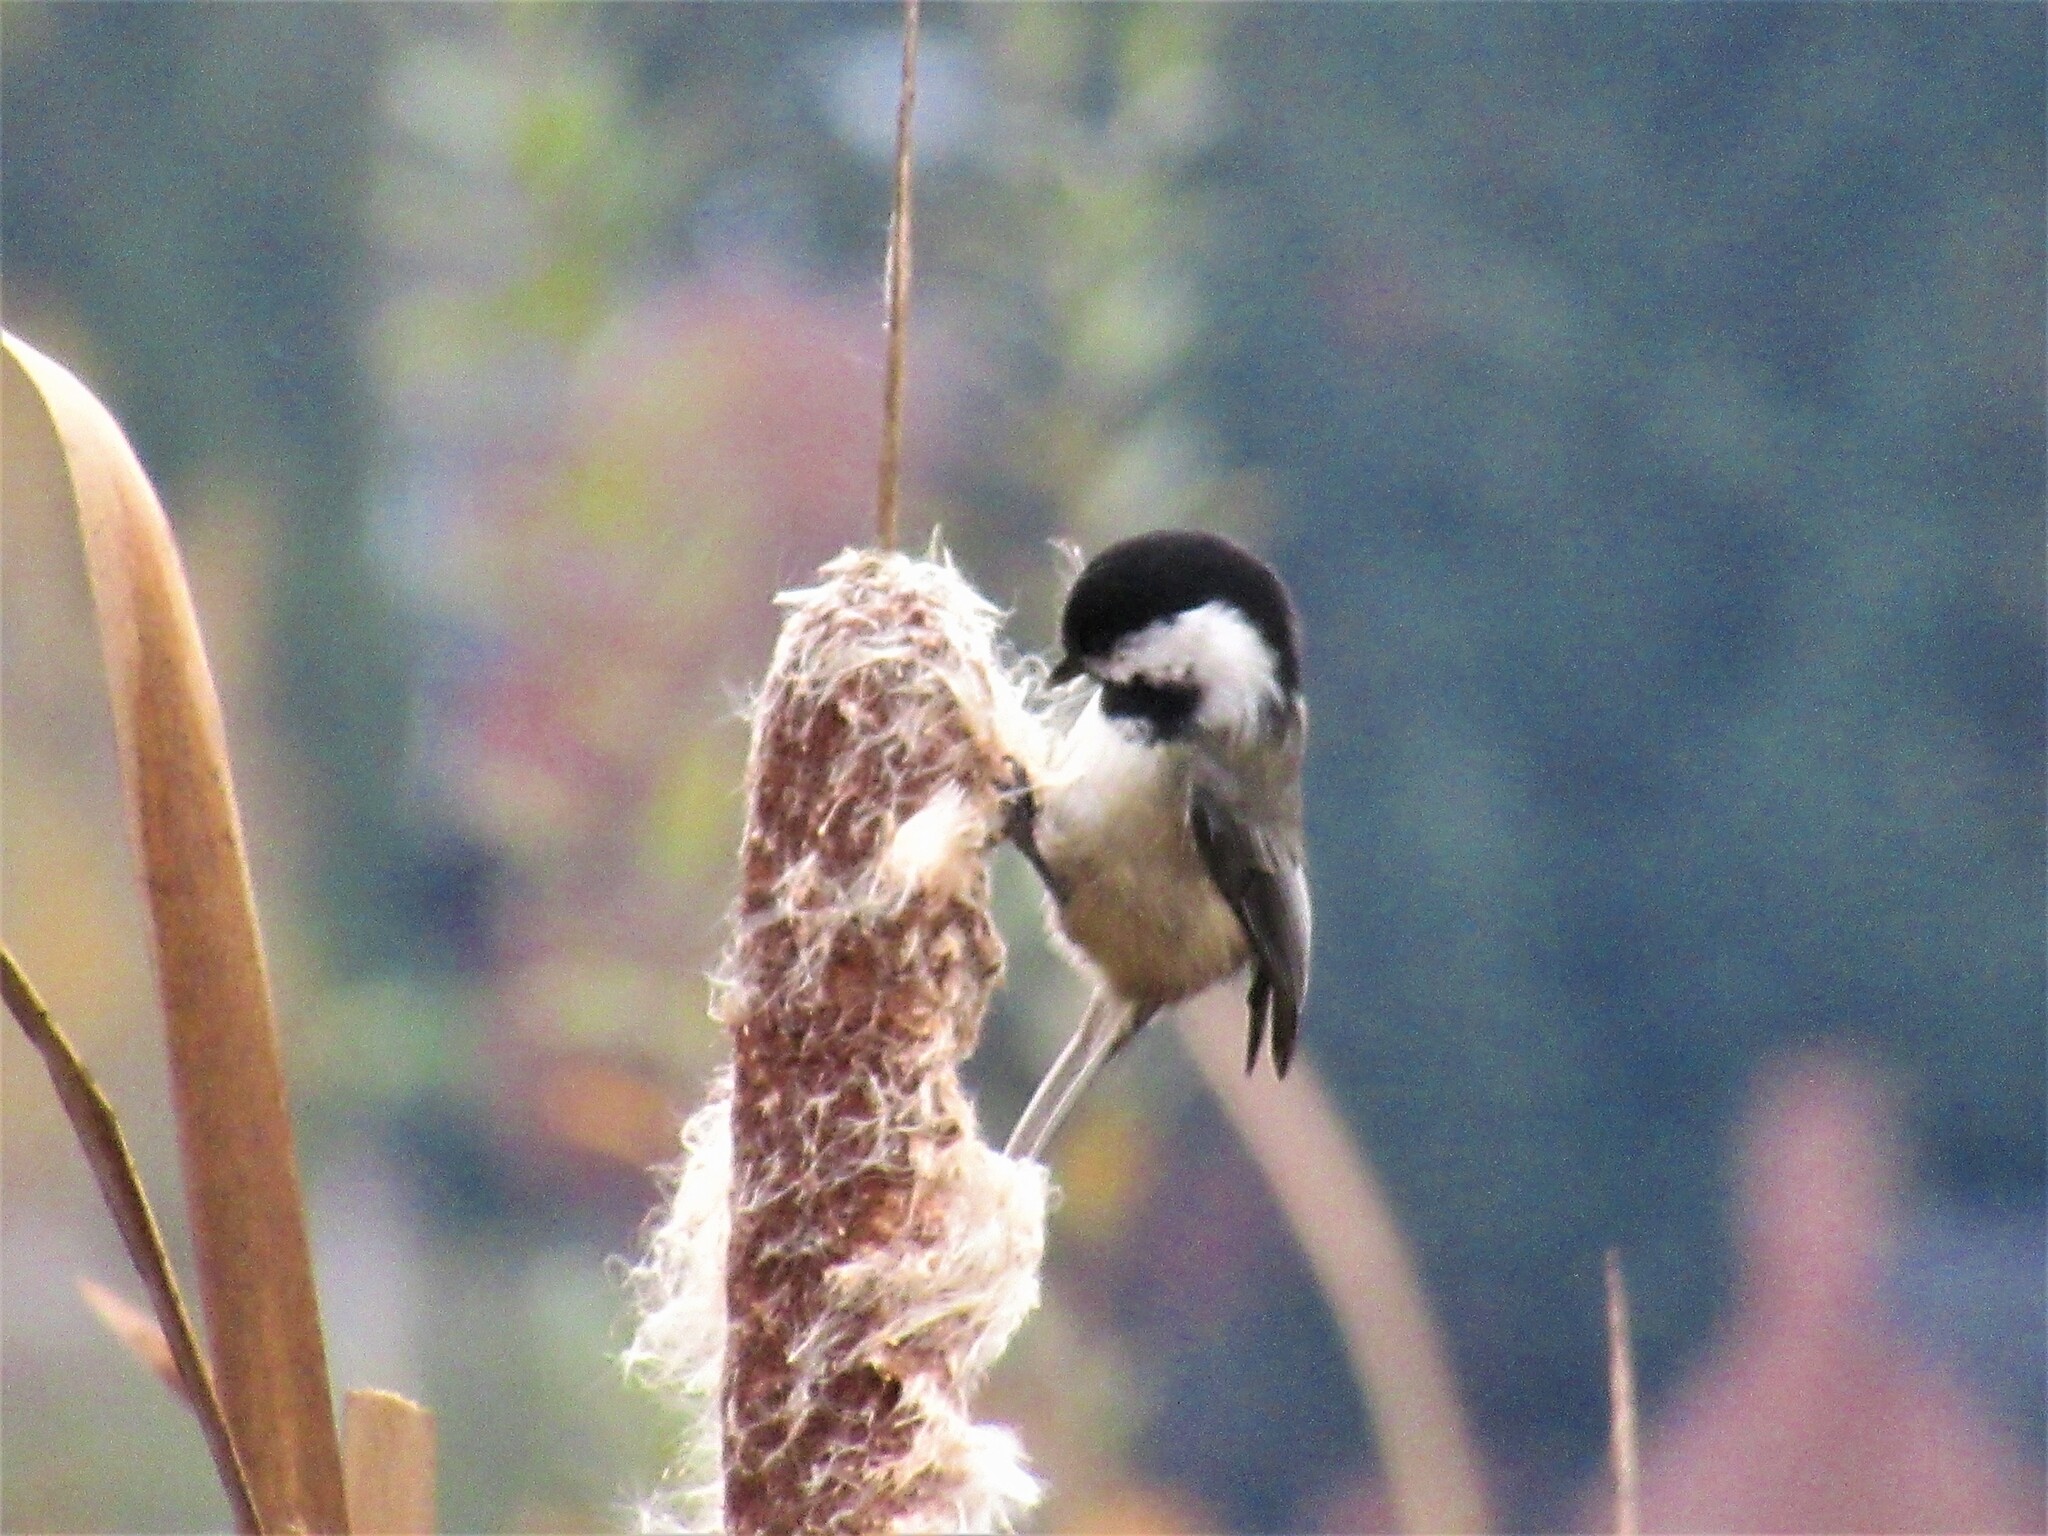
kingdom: Animalia
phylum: Chordata
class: Aves
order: Passeriformes
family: Paridae
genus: Poecile
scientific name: Poecile atricapillus
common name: Black-capped chickadee
